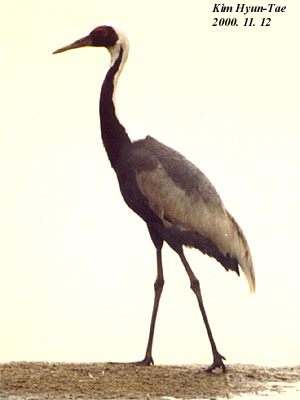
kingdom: Animalia
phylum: Chordata
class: Aves
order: Gruiformes
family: Gruidae
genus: Grus
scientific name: Grus vipio
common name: White-naped crane
